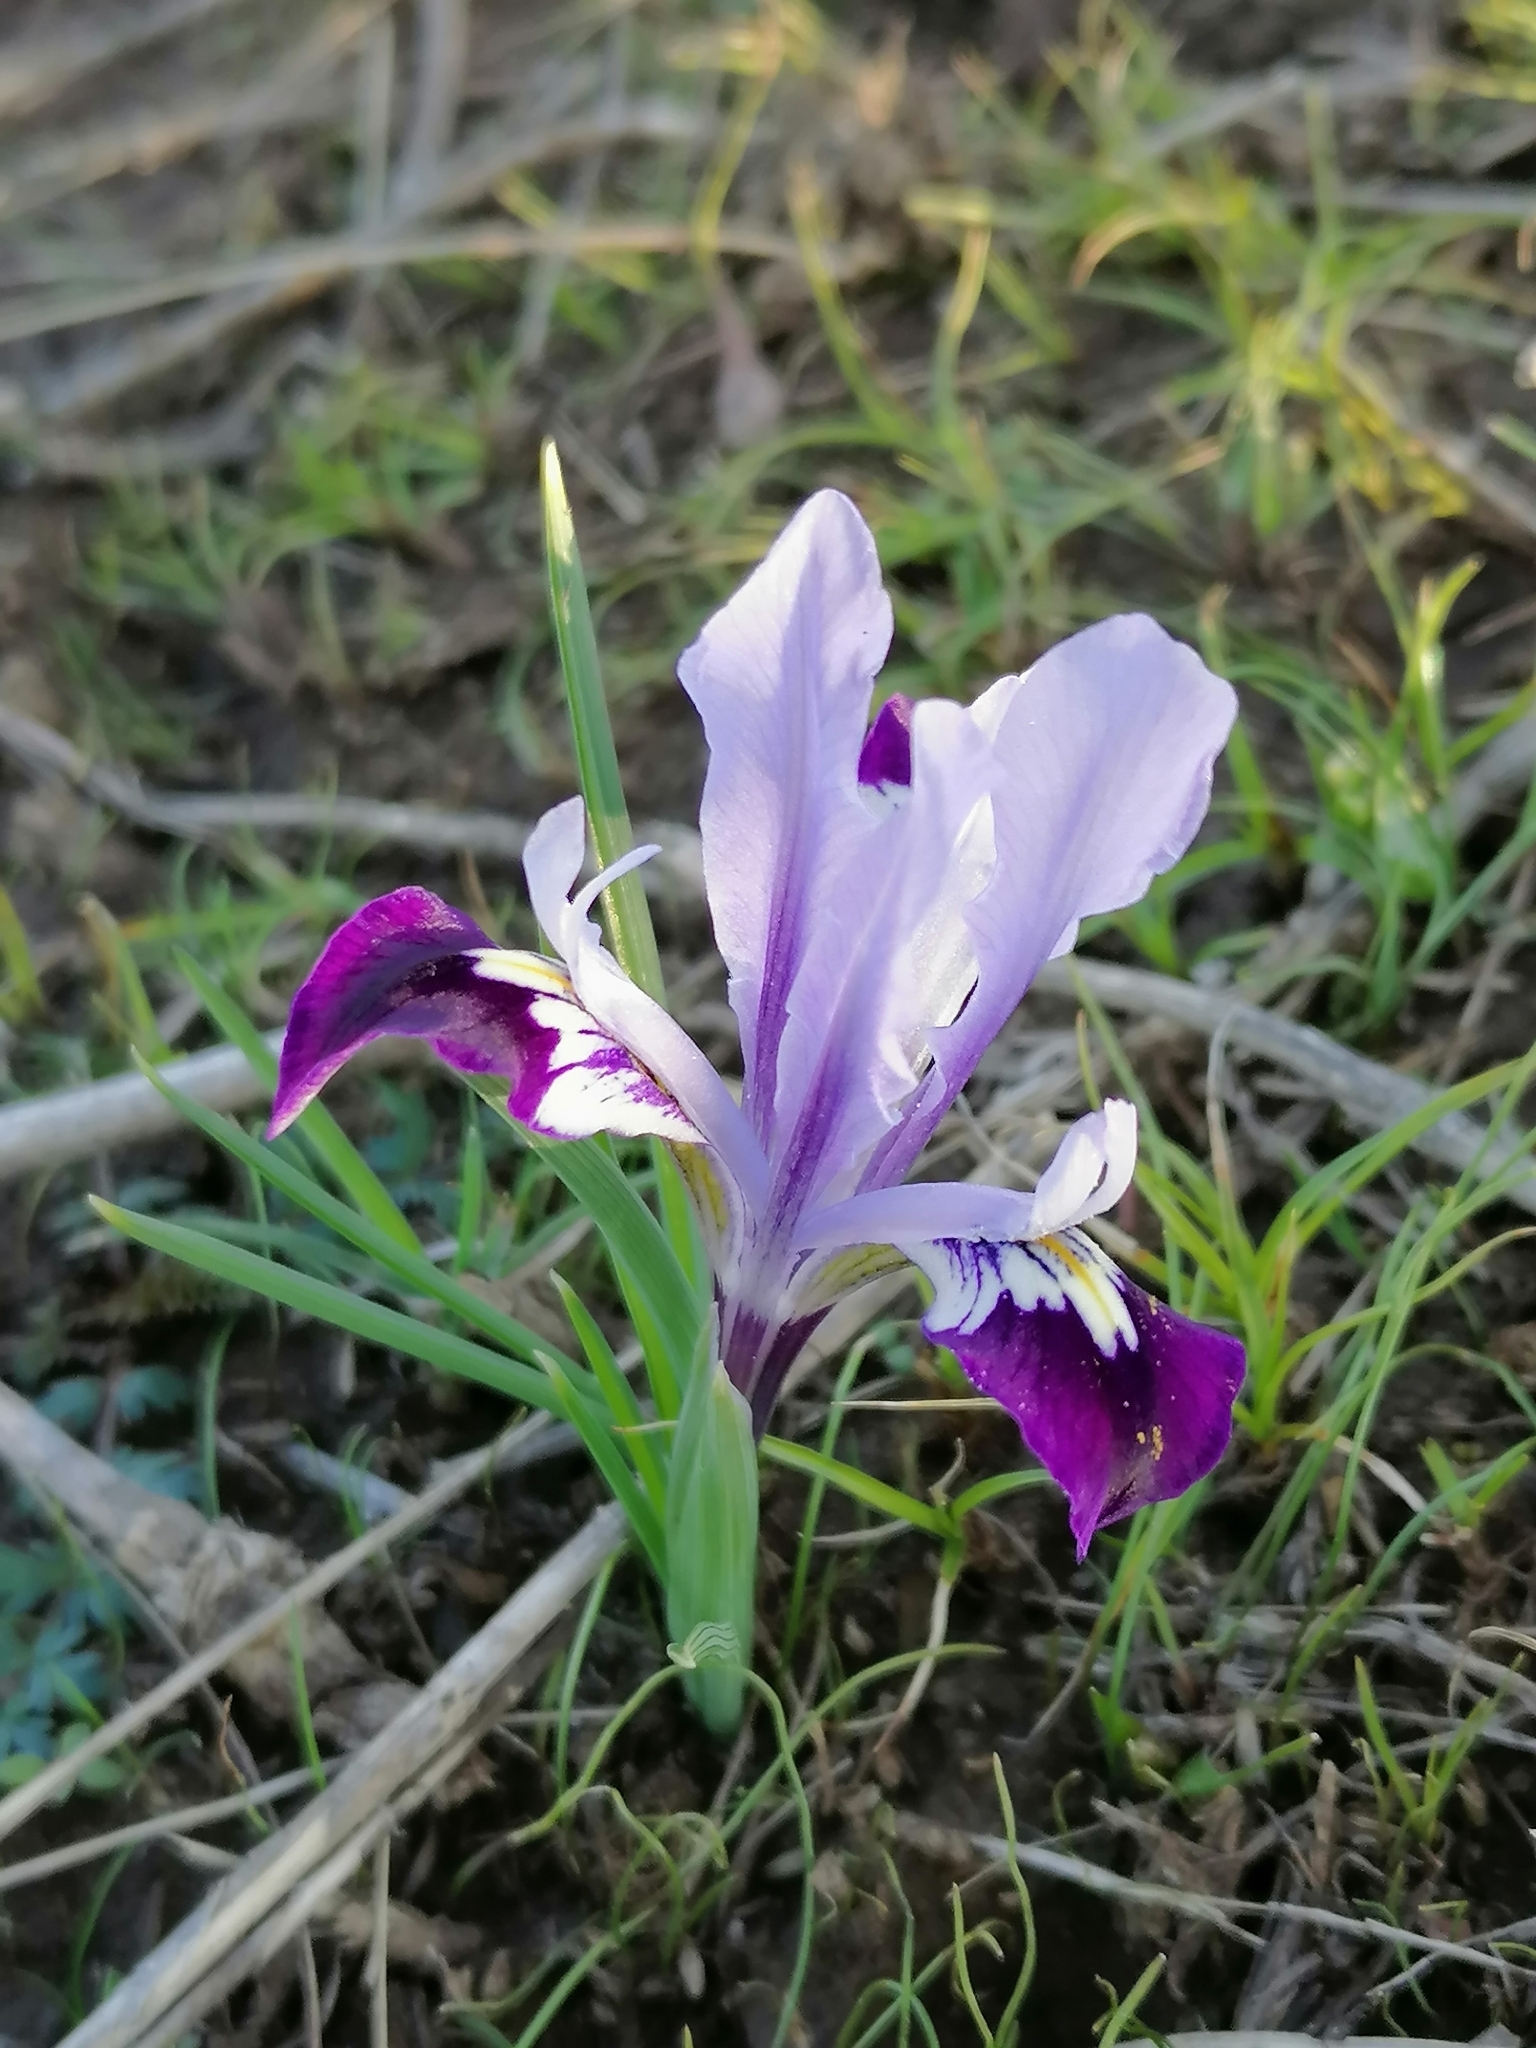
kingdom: Plantae
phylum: Tracheophyta
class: Liliopsida
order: Asparagales
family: Iridaceae
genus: Iris
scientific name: Iris kolpakowskiana
